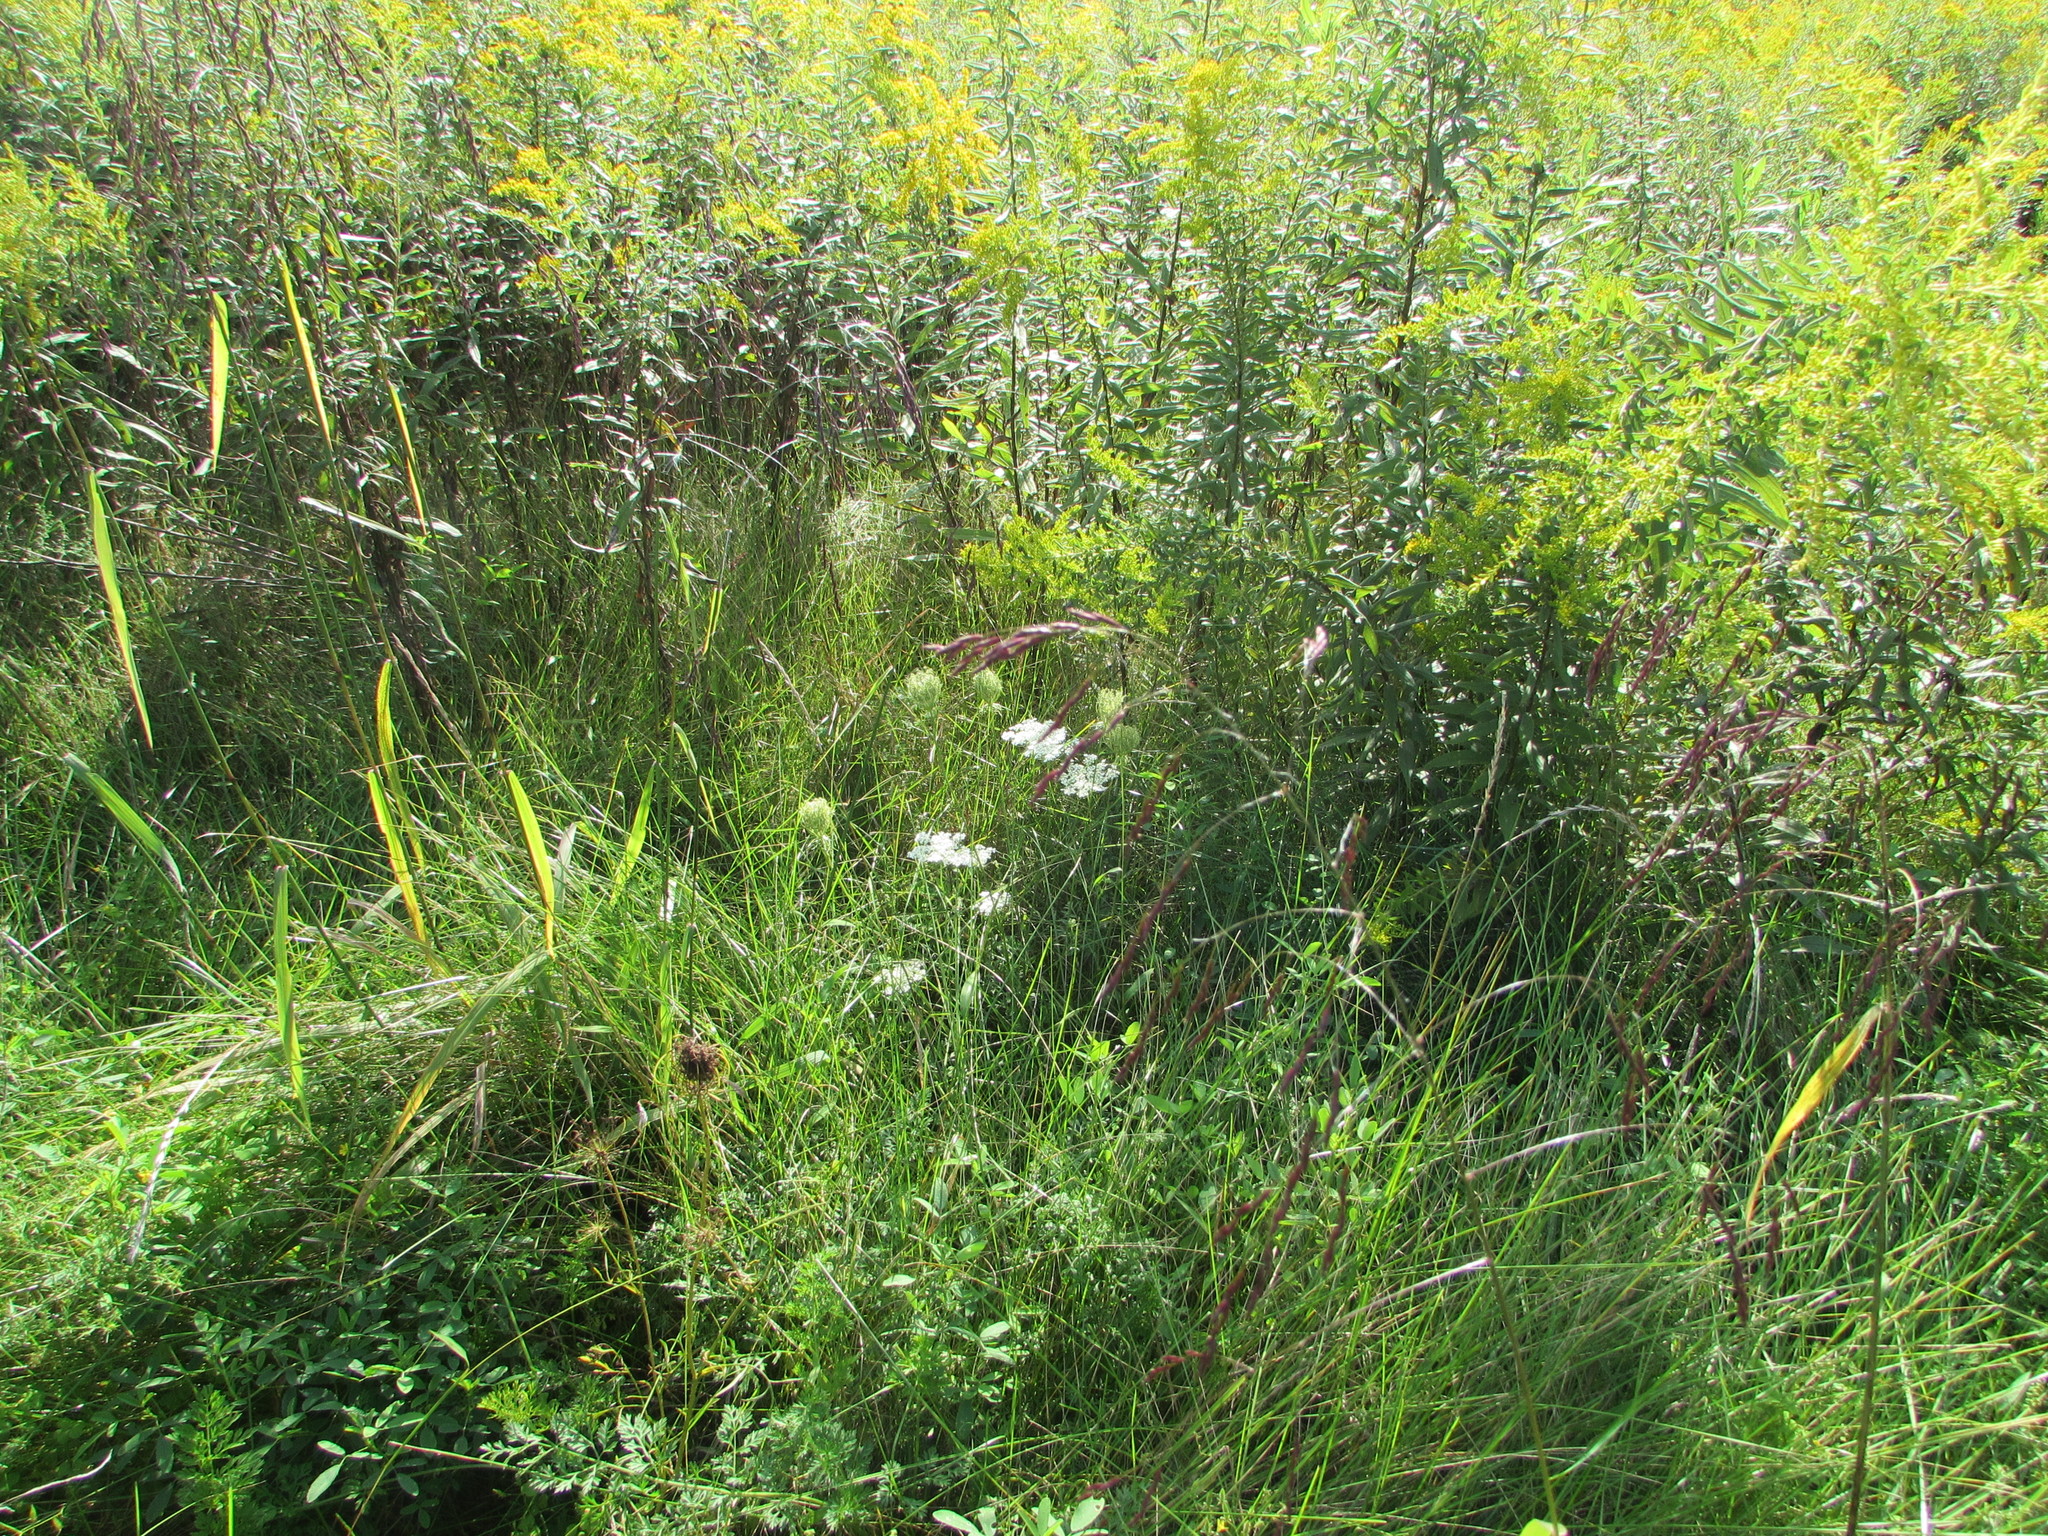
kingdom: Plantae
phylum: Tracheophyta
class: Liliopsida
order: Poales
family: Poaceae
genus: Tridens
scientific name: Tridens flavus
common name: Purpletop
